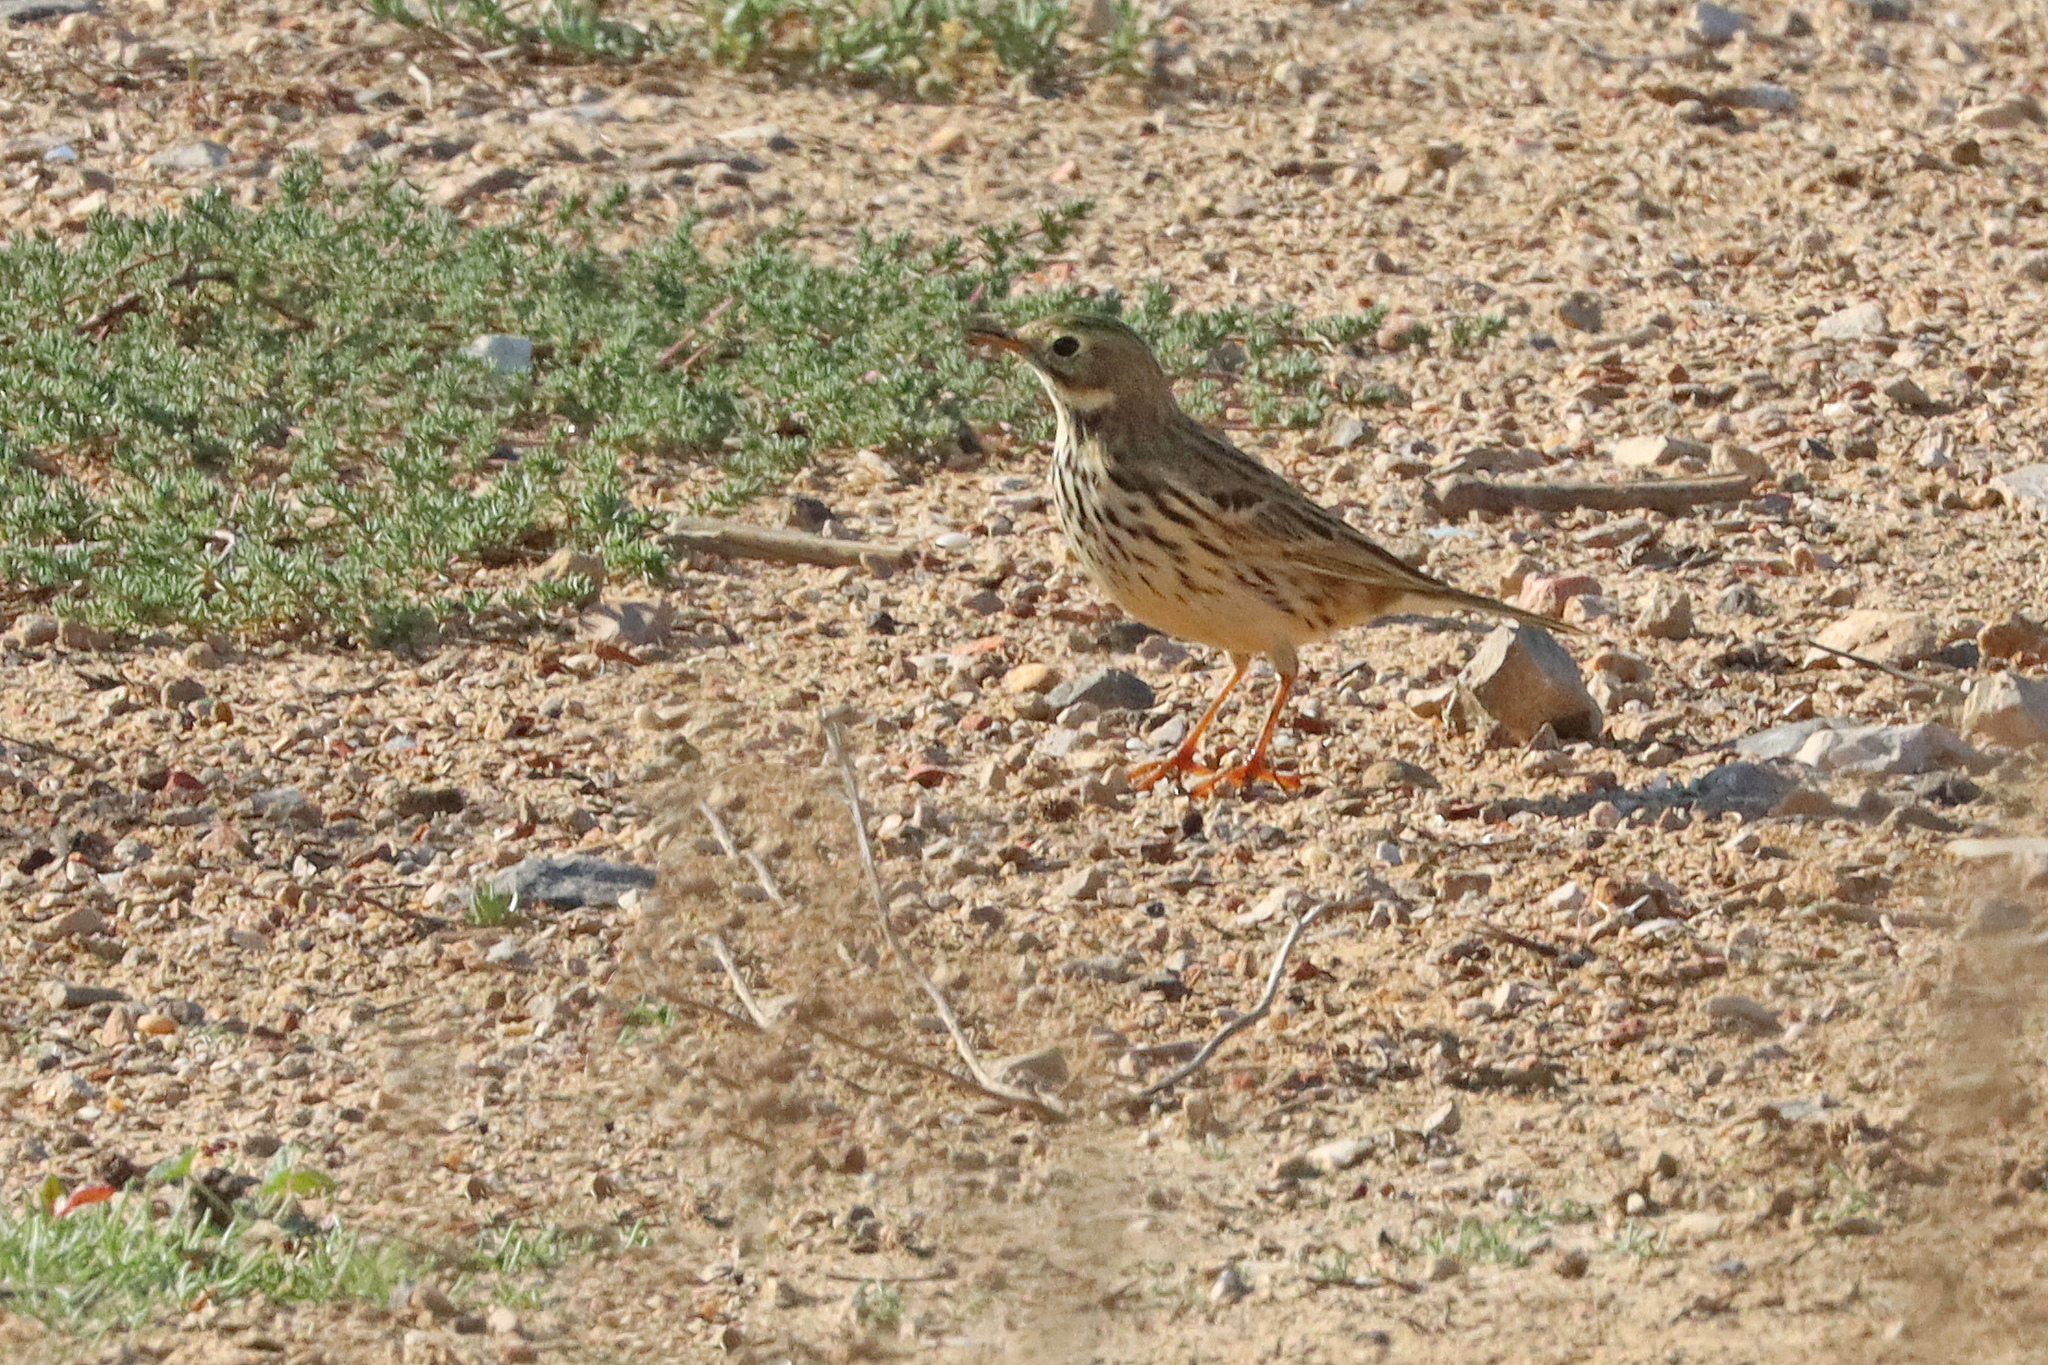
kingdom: Animalia
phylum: Chordata
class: Aves
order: Passeriformes
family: Motacillidae
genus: Anthus
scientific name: Anthus pratensis
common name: Meadow pipit
